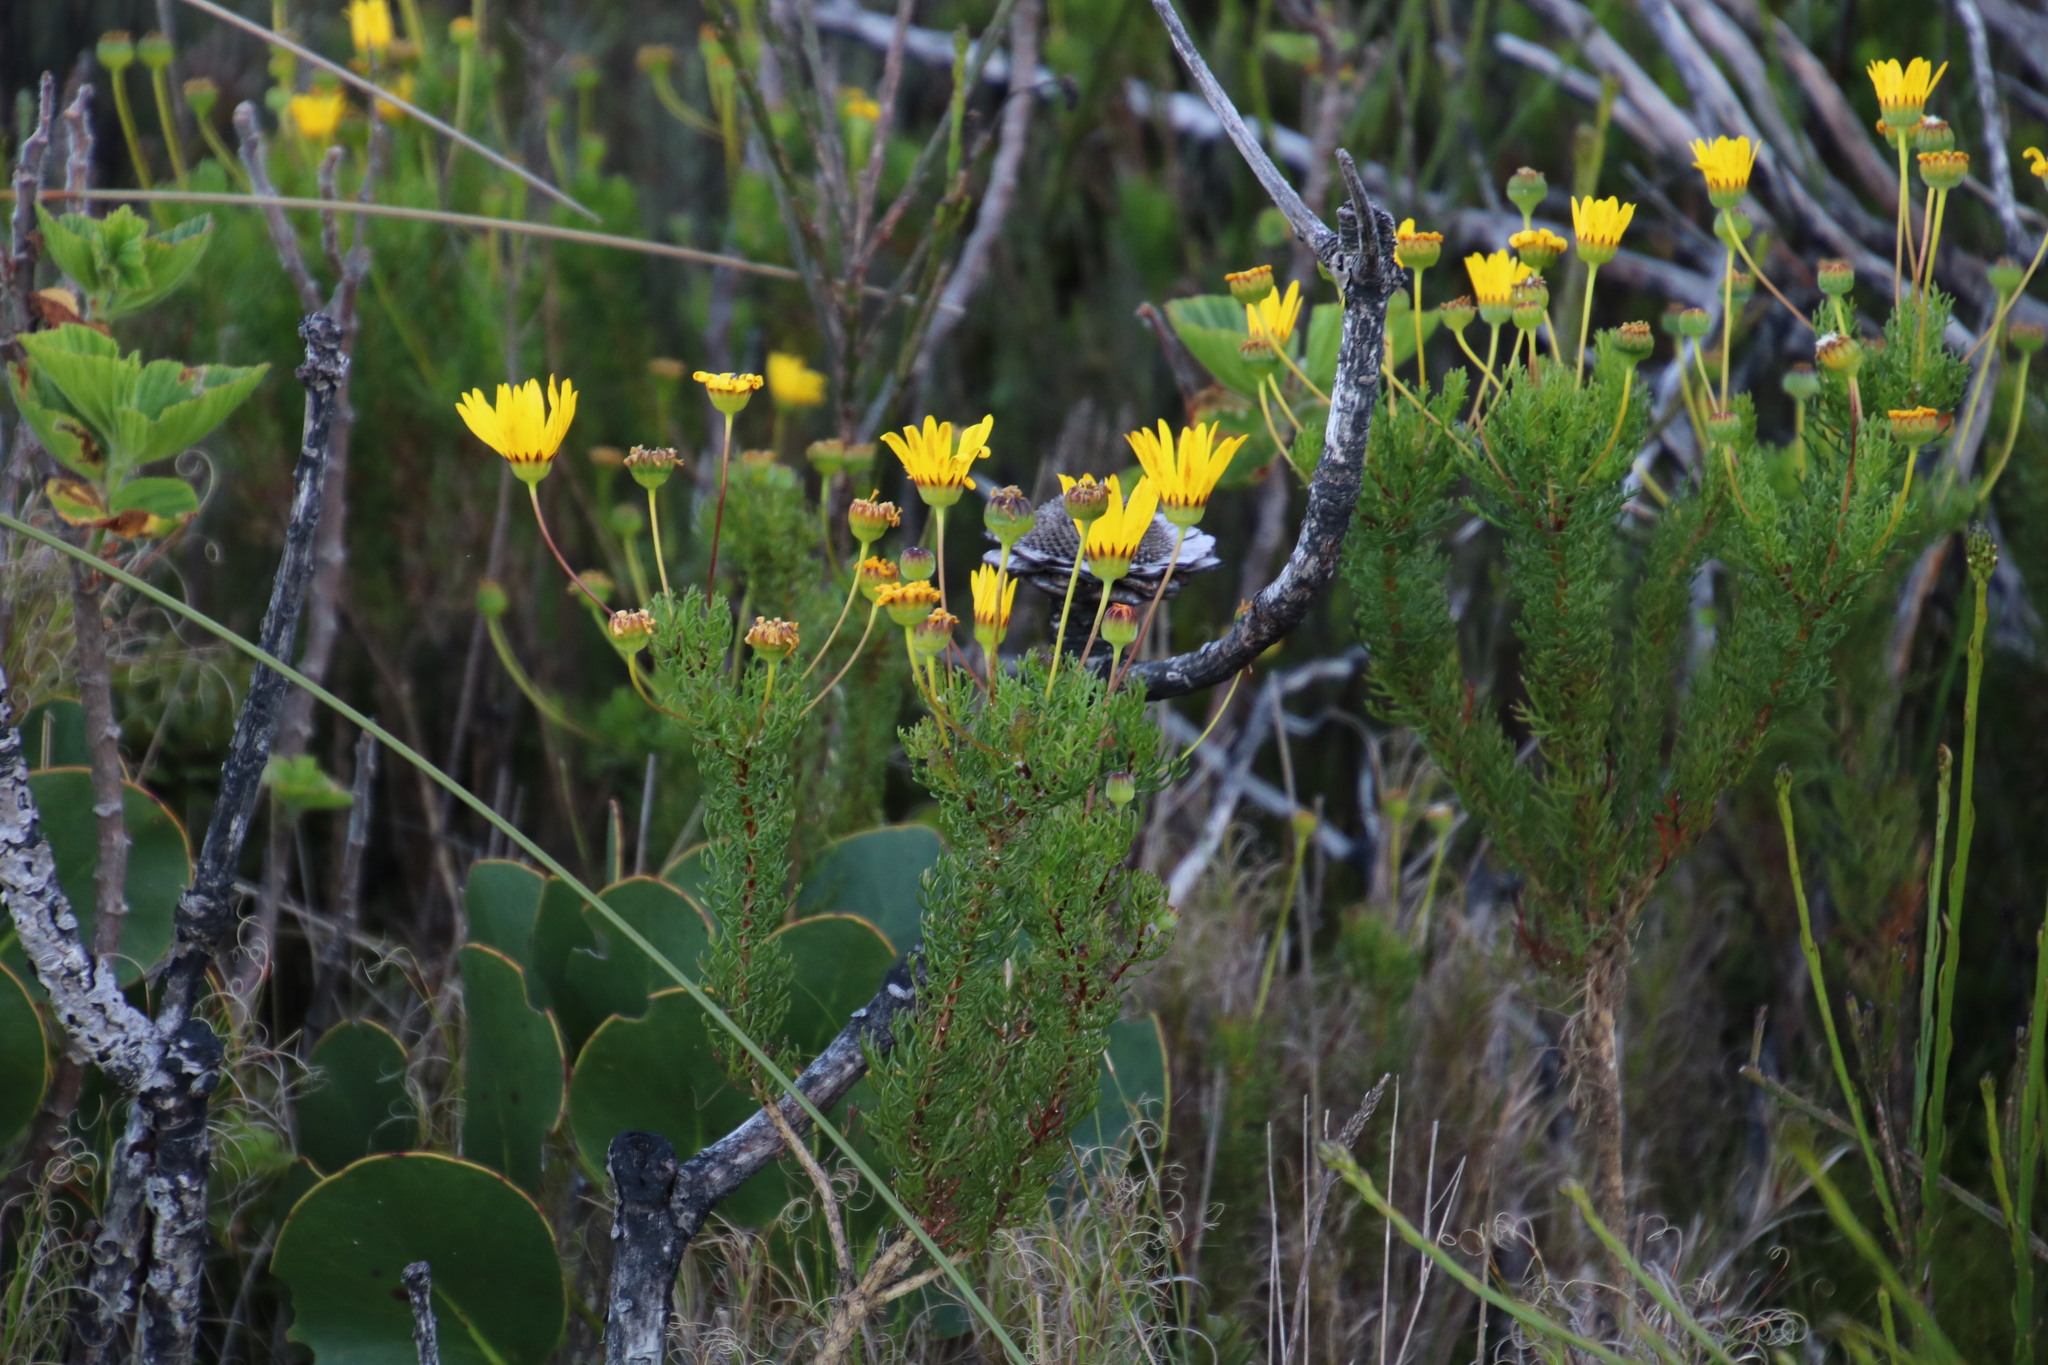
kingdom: Plantae
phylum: Tracheophyta
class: Magnoliopsida
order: Asterales
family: Asteraceae
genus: Euryops
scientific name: Euryops abrotanifolius
